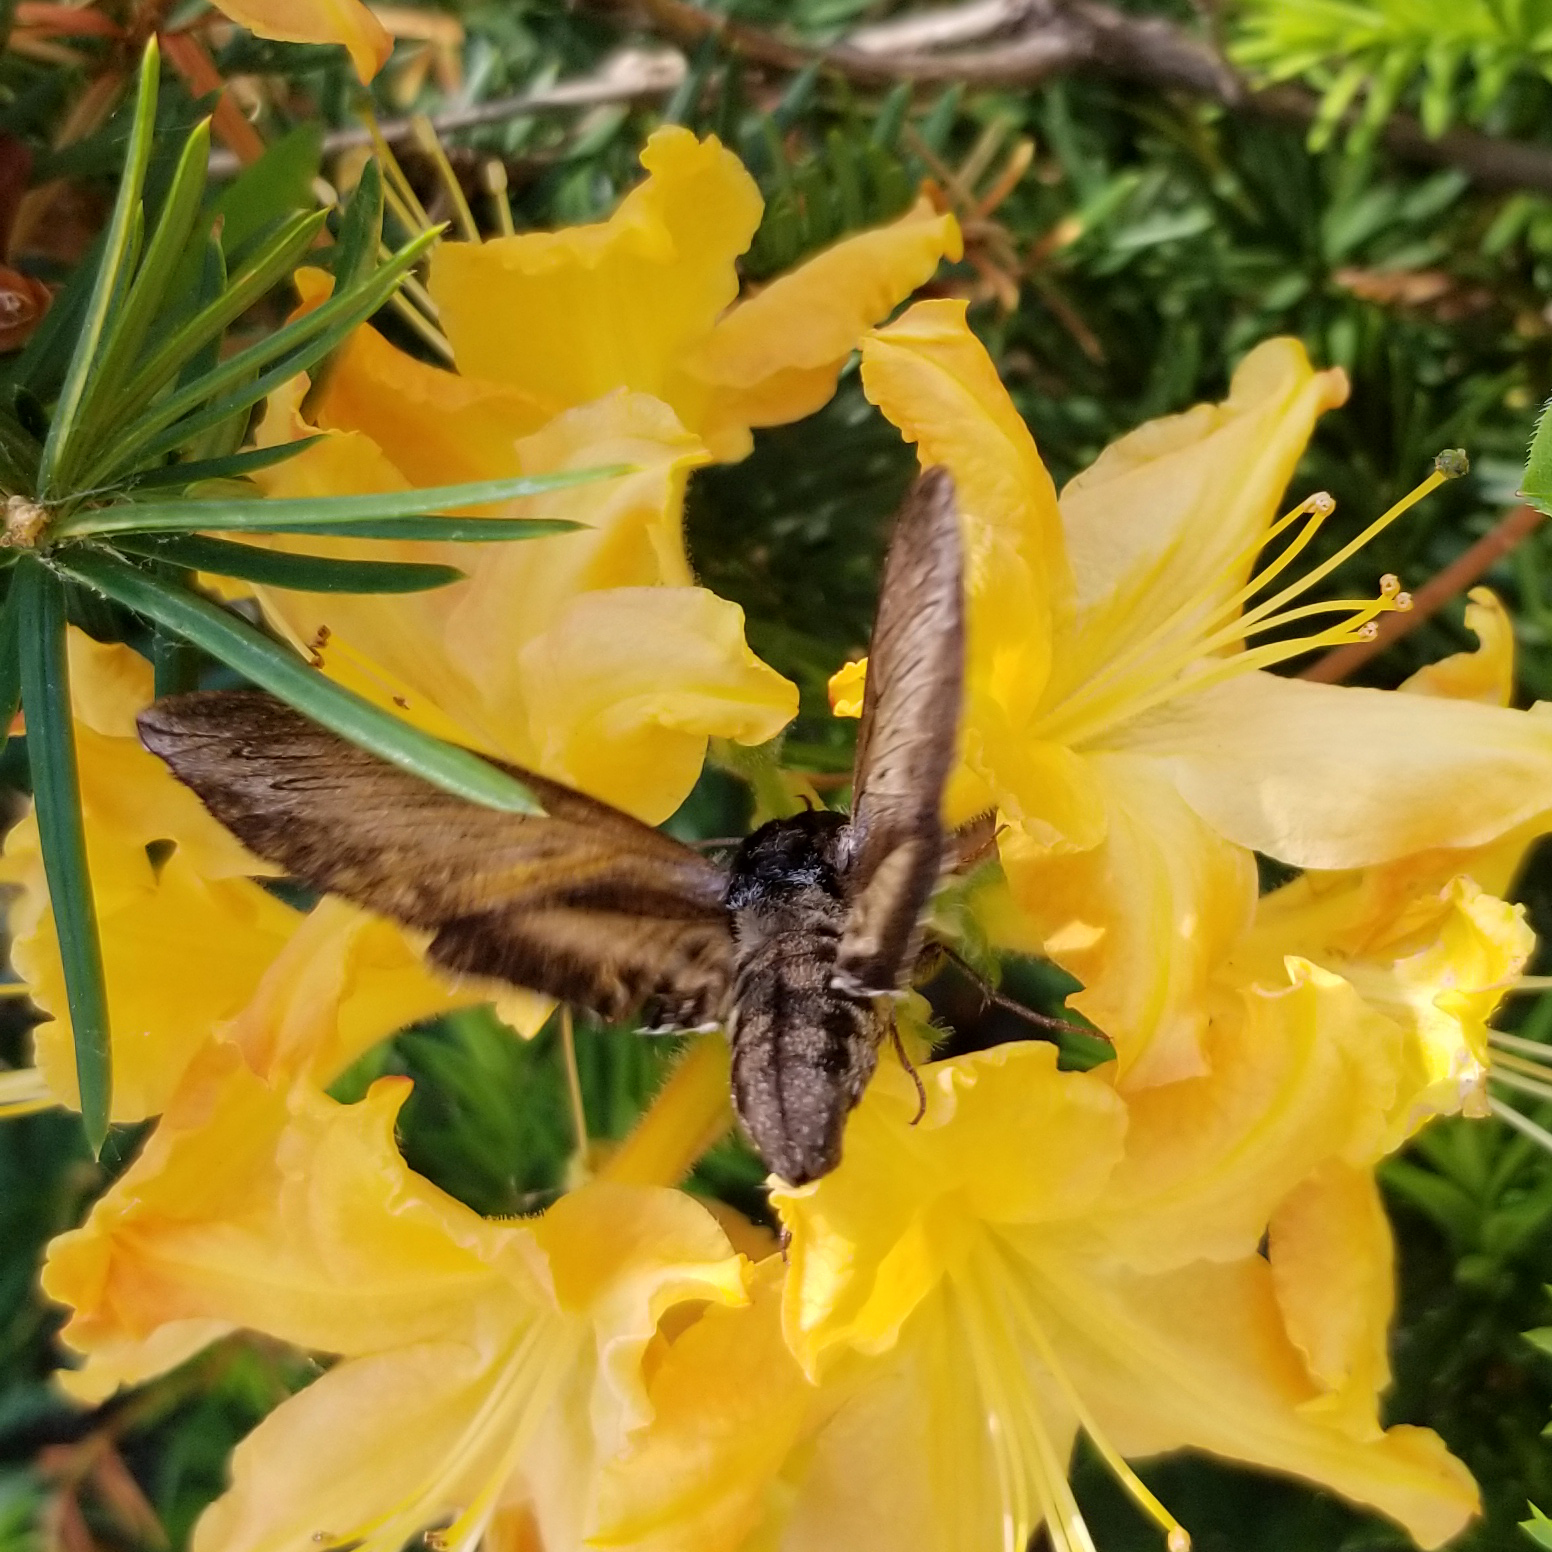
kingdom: Animalia
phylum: Arthropoda
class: Insecta
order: Lepidoptera
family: Sphingidae
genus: Sphinx
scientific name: Sphinx luscitiosa
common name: Clemen's sphinx
